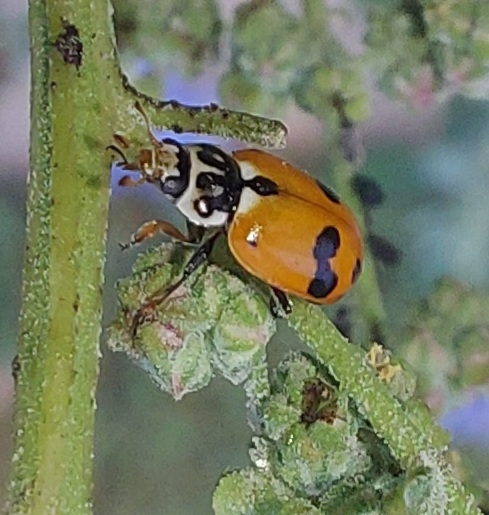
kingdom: Animalia
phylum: Arthropoda
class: Insecta
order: Coleoptera
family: Coccinellidae
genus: Hippodamia
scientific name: Hippodamia variegata
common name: Ladybird beetle
